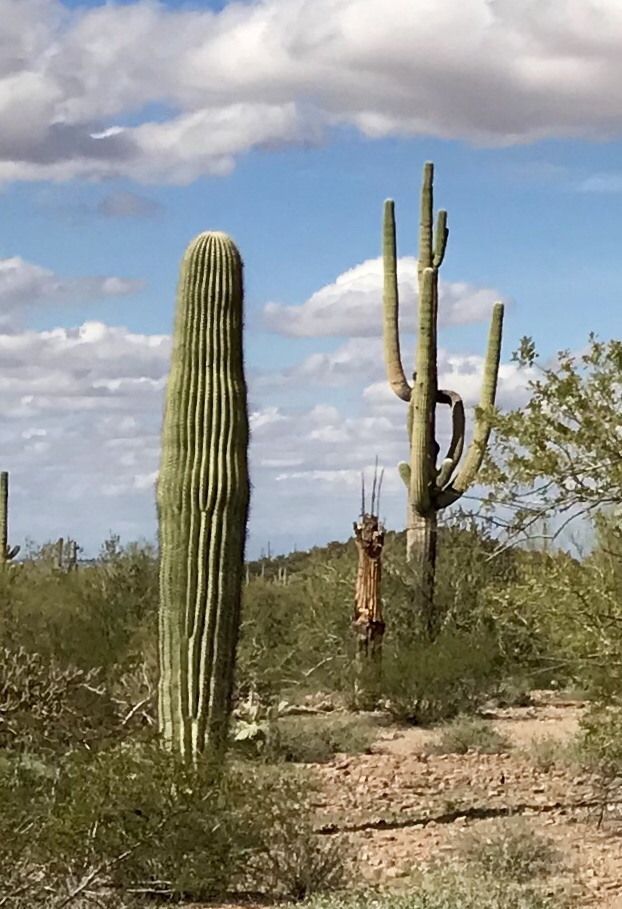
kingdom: Plantae
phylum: Tracheophyta
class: Magnoliopsida
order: Caryophyllales
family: Cactaceae
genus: Carnegiea
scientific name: Carnegiea gigantea
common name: Saguaro
